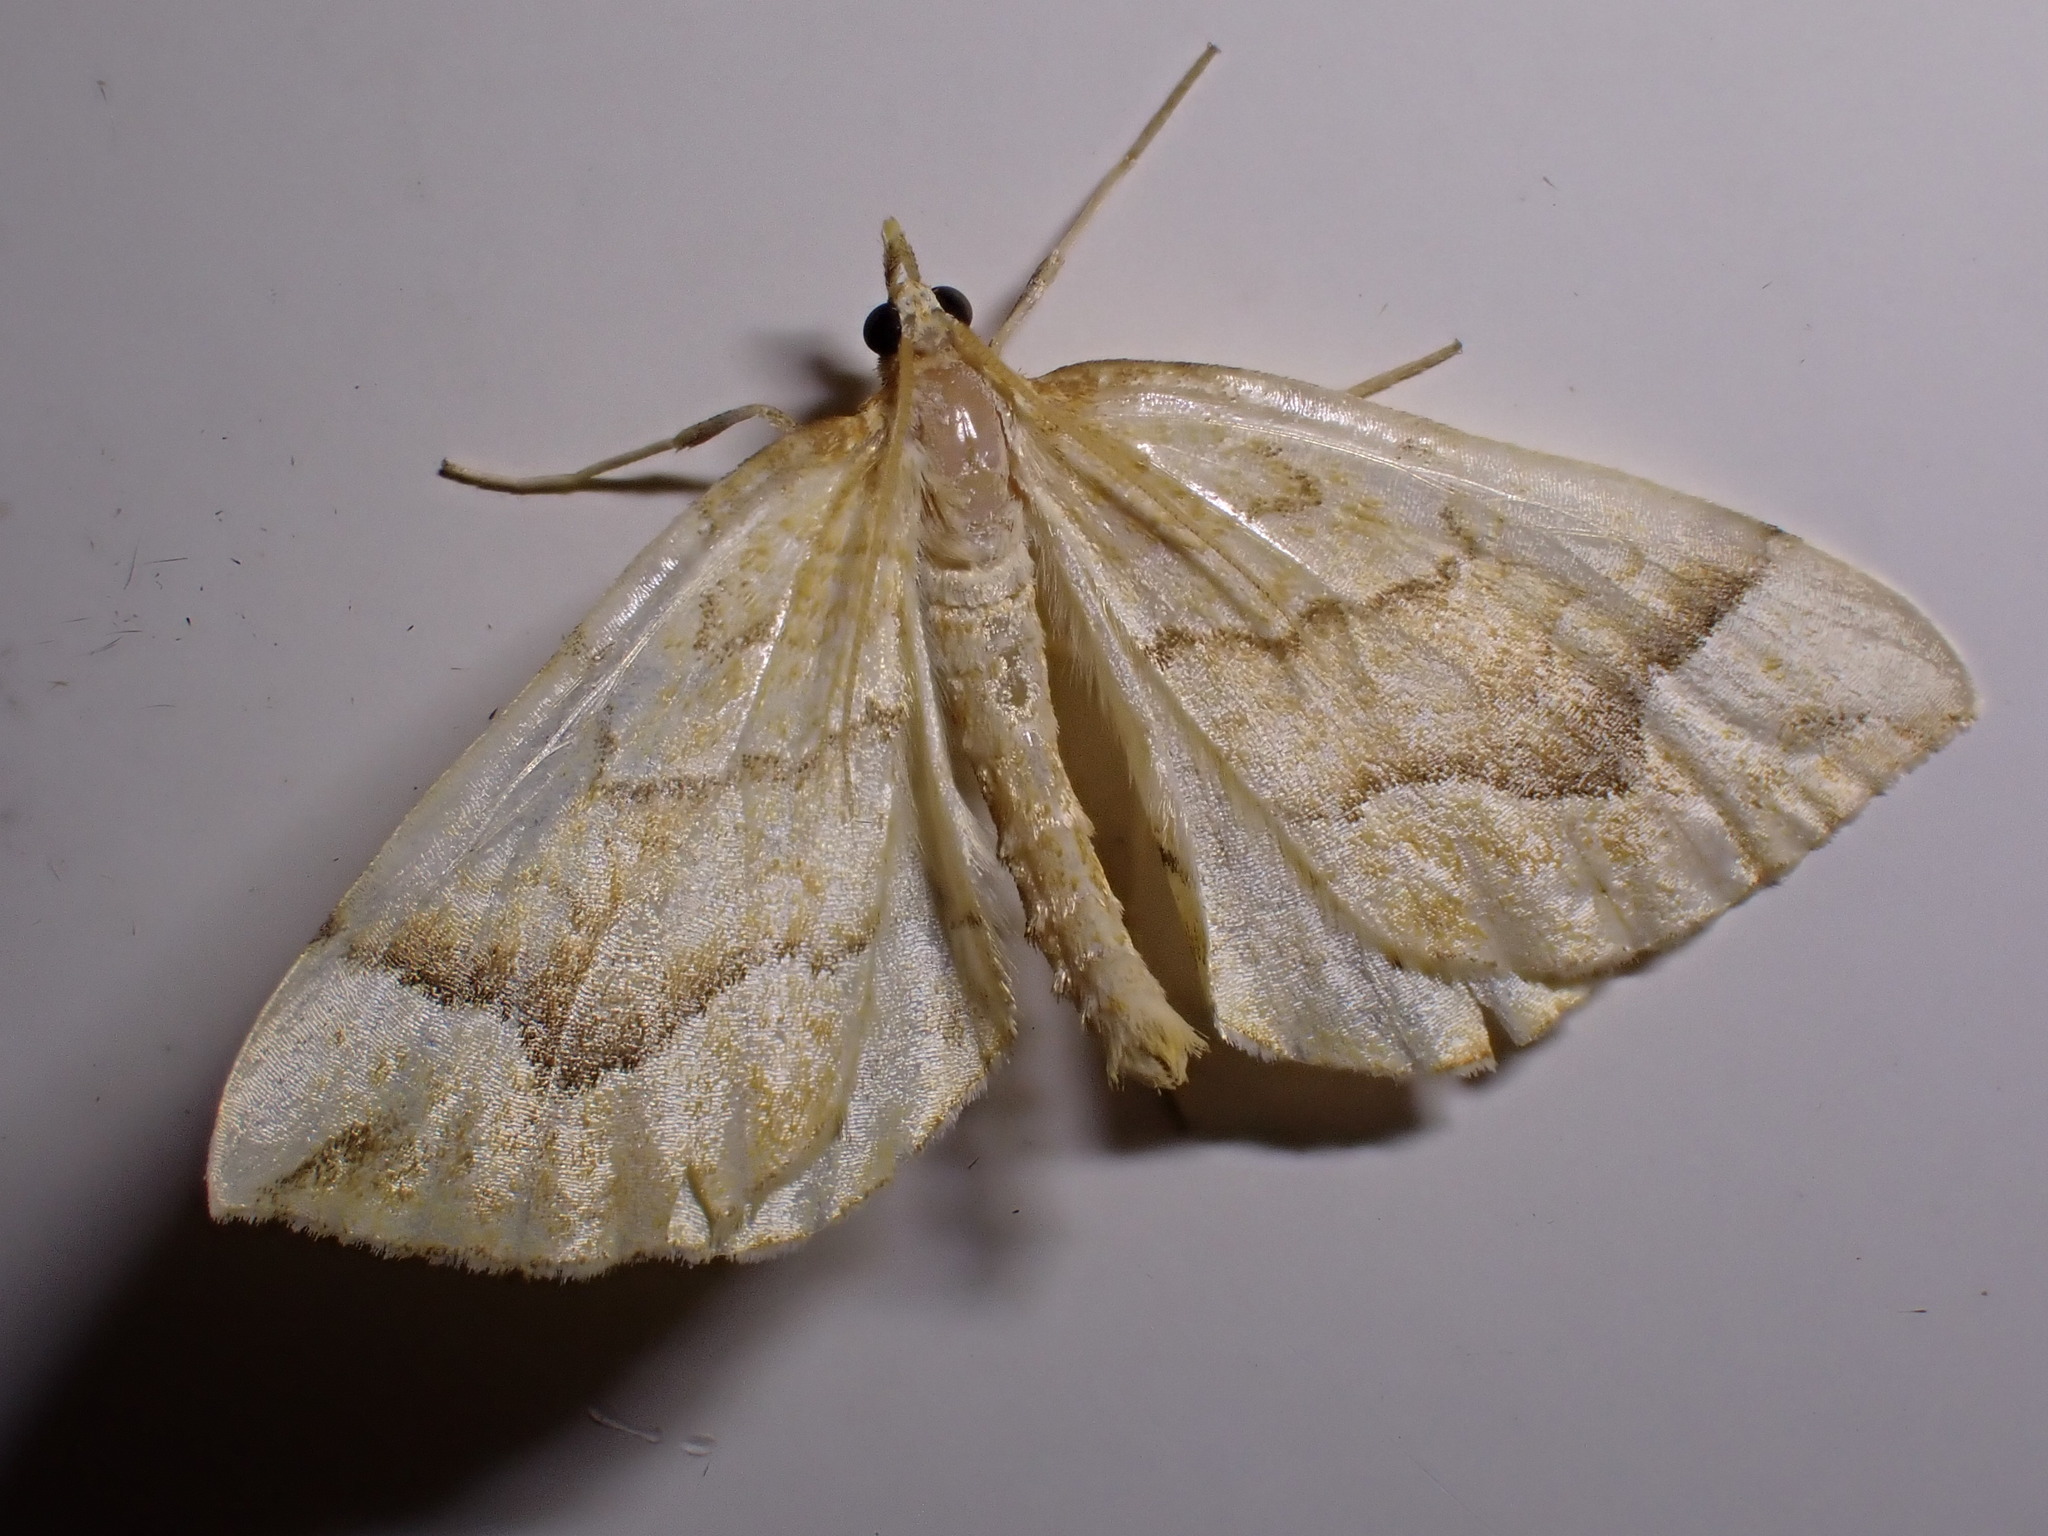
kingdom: Animalia
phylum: Arthropoda
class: Insecta
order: Lepidoptera
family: Geometridae
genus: Eulithis
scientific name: Eulithis mellinata
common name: Spinach
